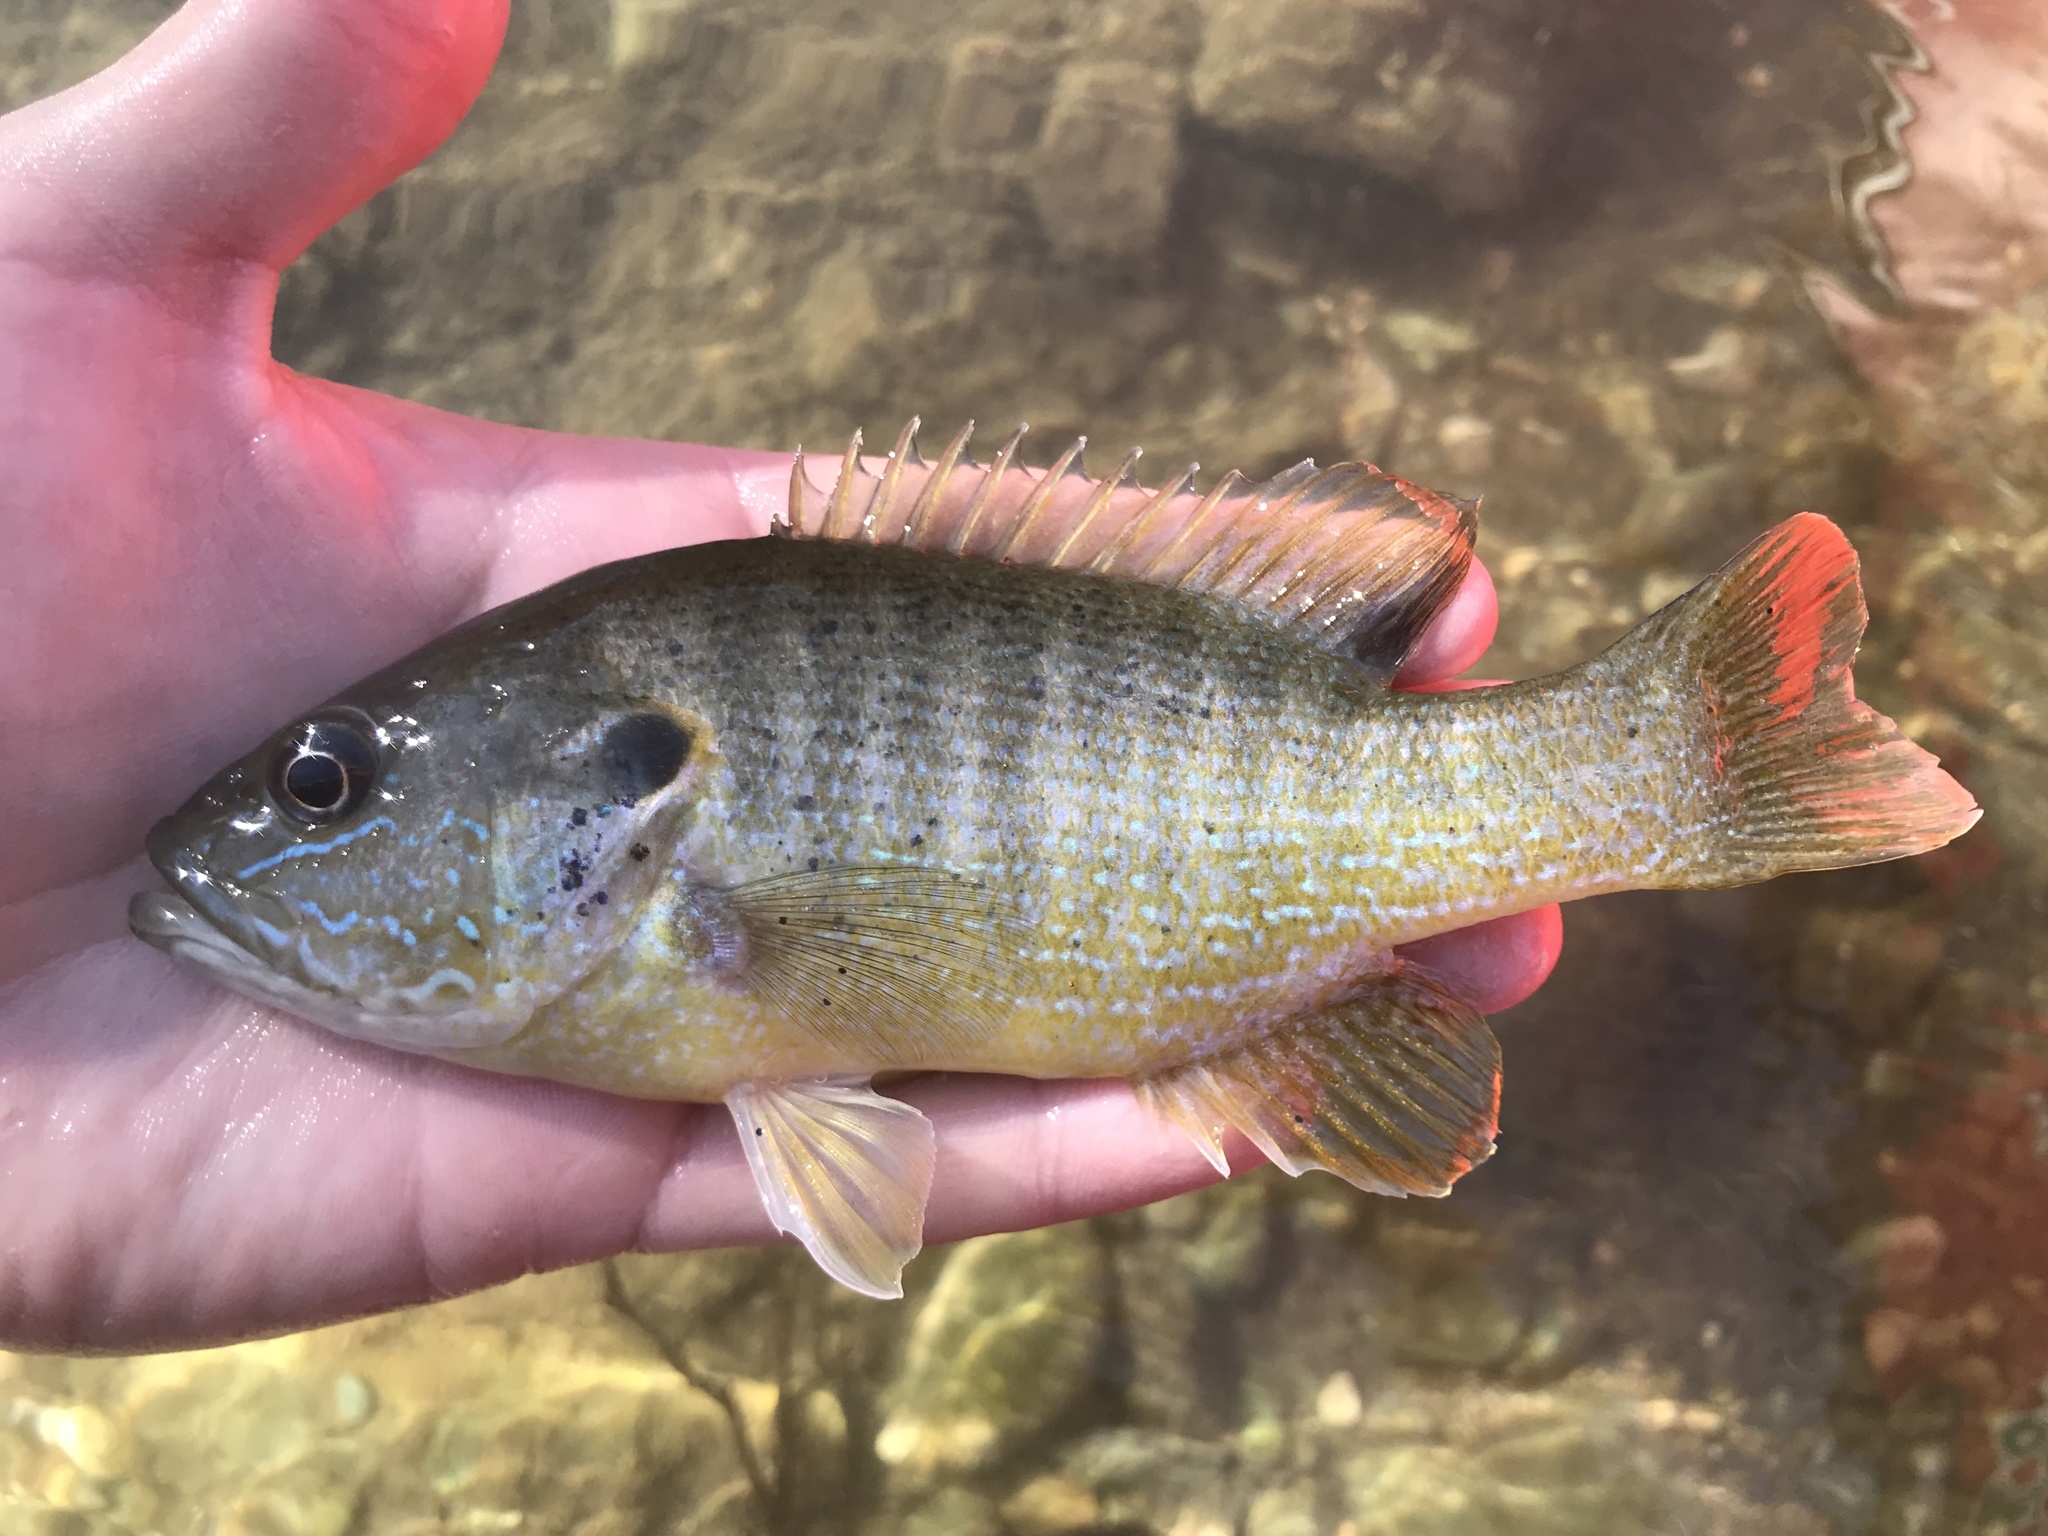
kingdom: Animalia
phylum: Chordata
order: Perciformes
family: Centrarchidae
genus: Lepomis
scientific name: Lepomis cyanellus
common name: Green sunfish
